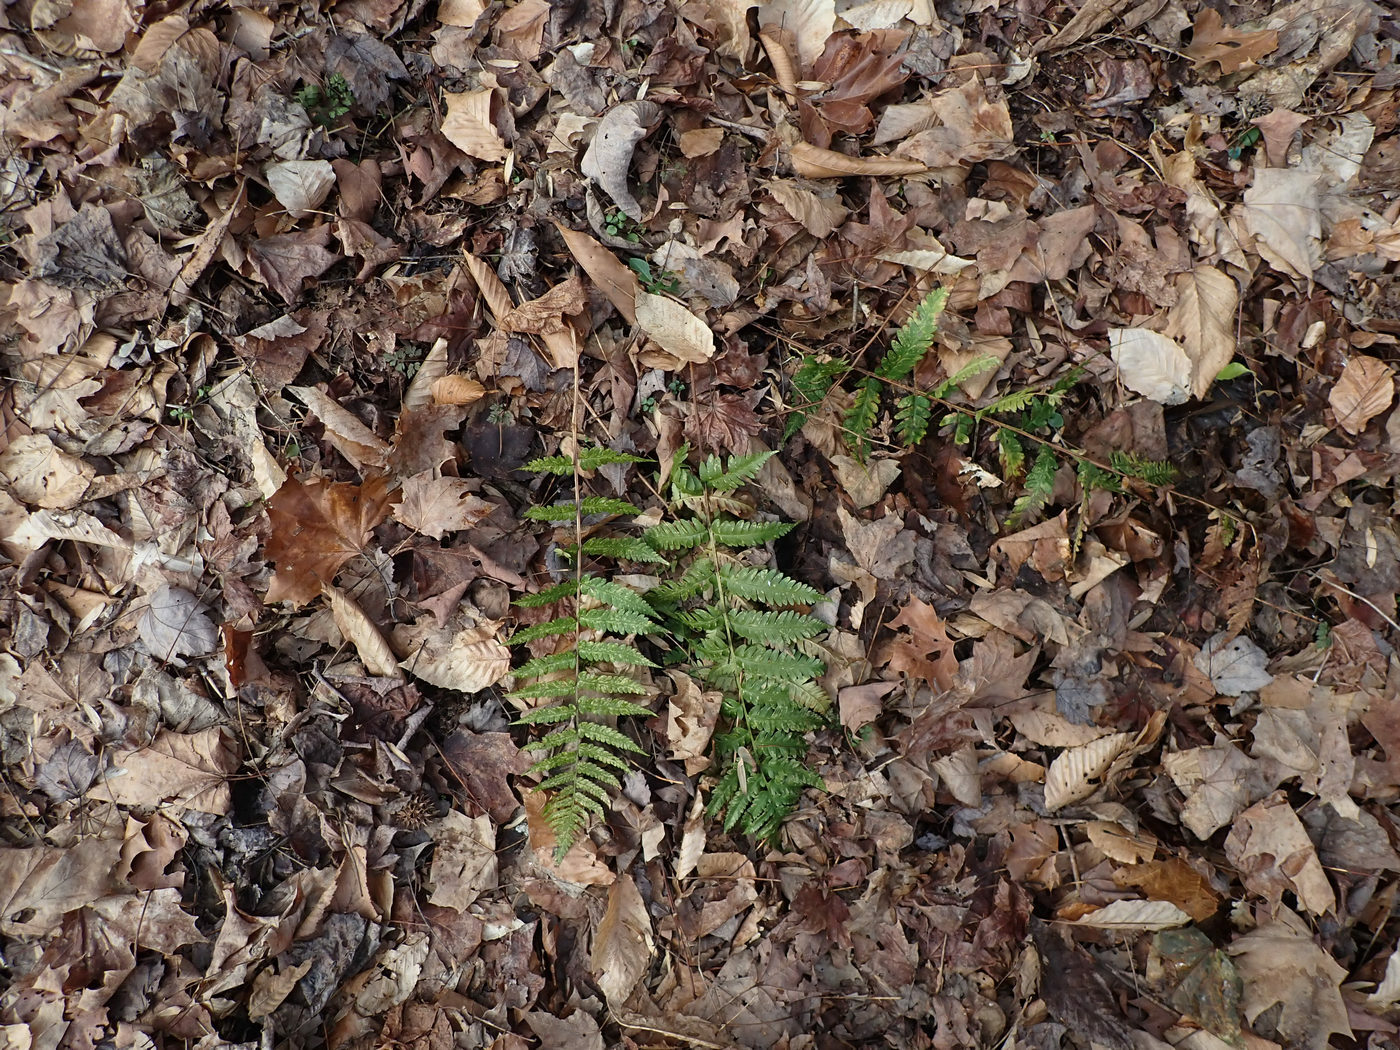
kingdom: Plantae
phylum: Tracheophyta
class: Polypodiopsida
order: Polypodiales
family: Dryopteridaceae
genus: Dryopteris
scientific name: Dryopteris celsa
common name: Log fern
